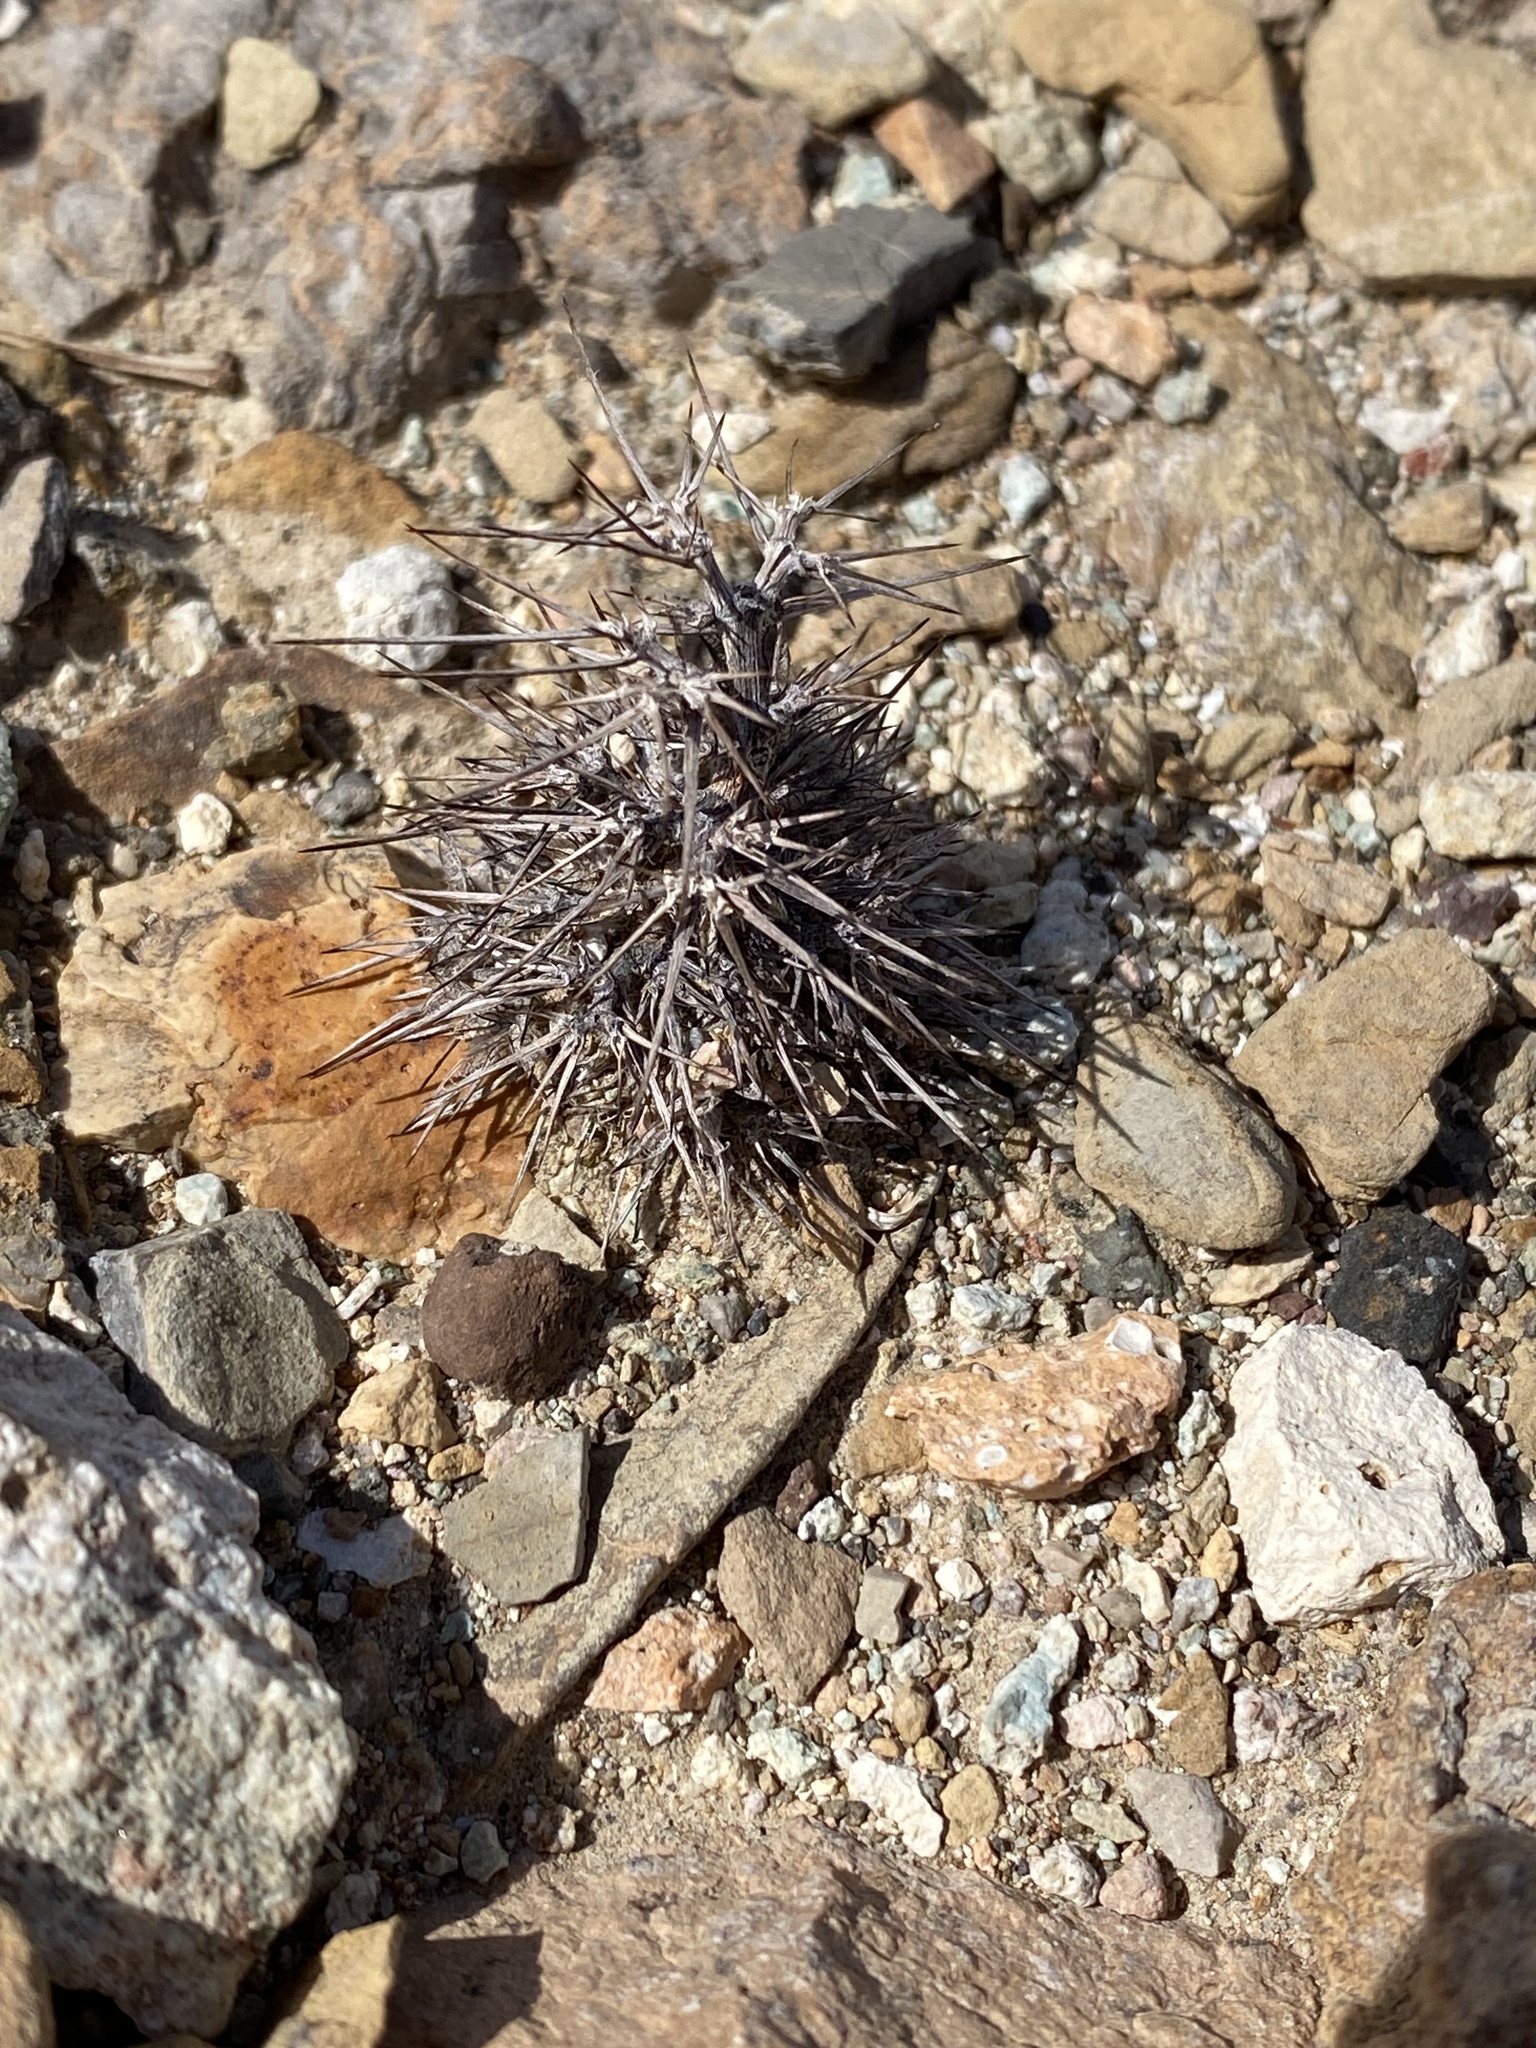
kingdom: Plantae
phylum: Tracheophyta
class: Magnoliopsida
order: Caryophyllales
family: Polygonaceae
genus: Chorizanthe
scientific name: Chorizanthe rigida
